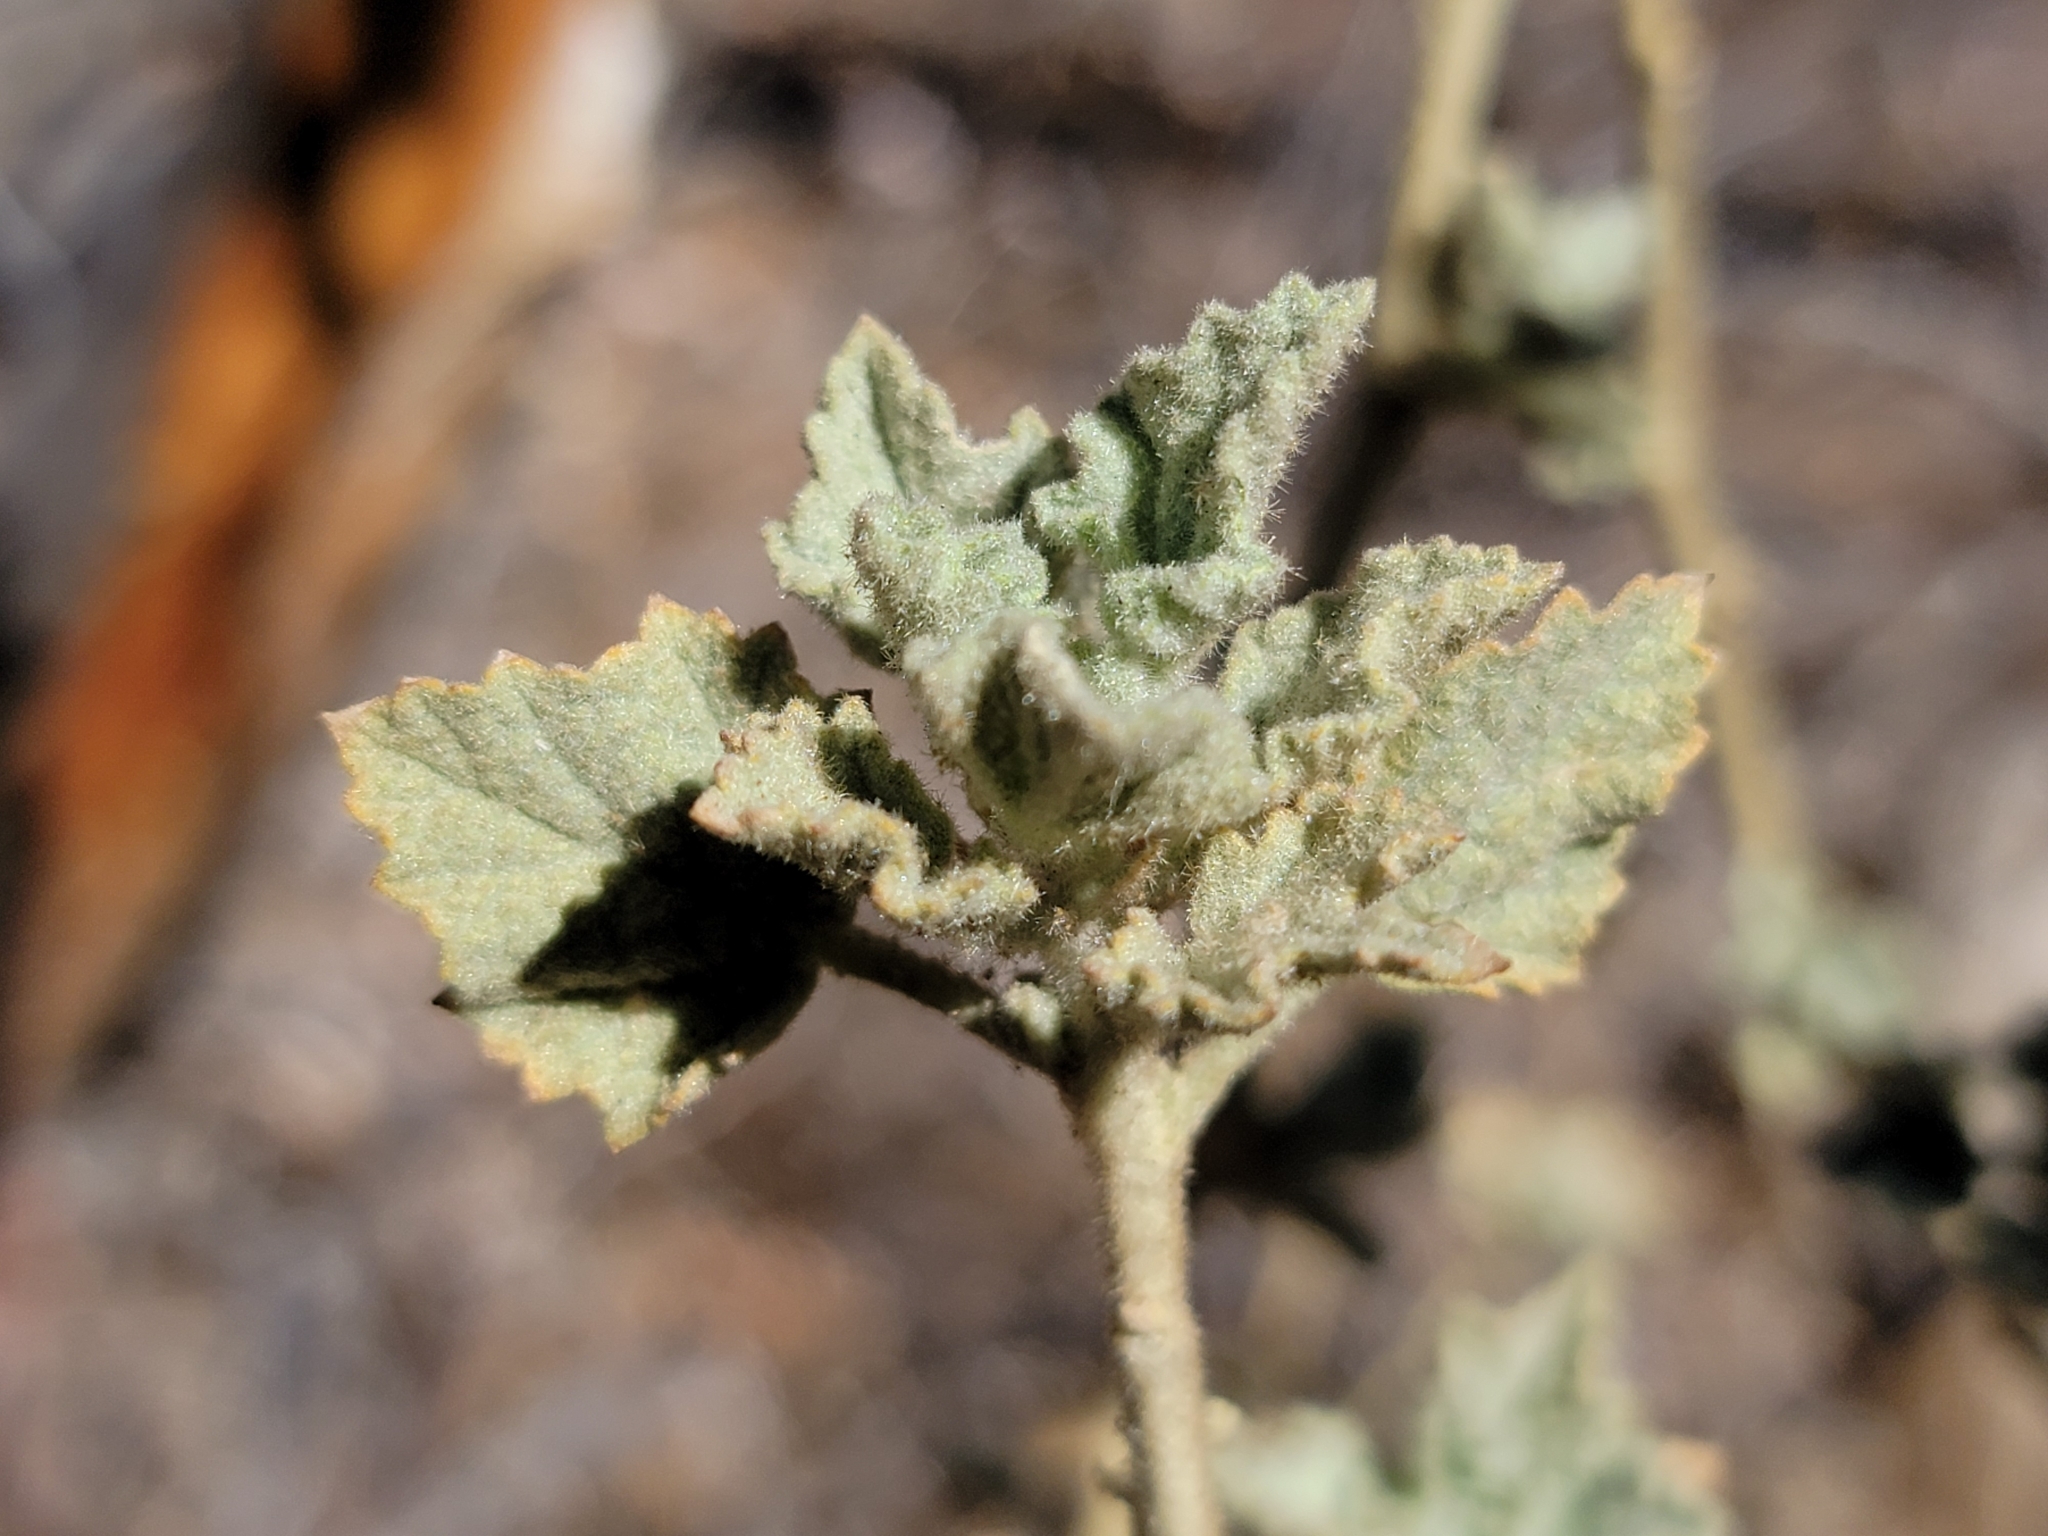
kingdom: Plantae
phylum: Tracheophyta
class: Magnoliopsida
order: Malvales
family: Malvaceae
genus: Malacothamnus
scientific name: Malacothamnus marrubioides
